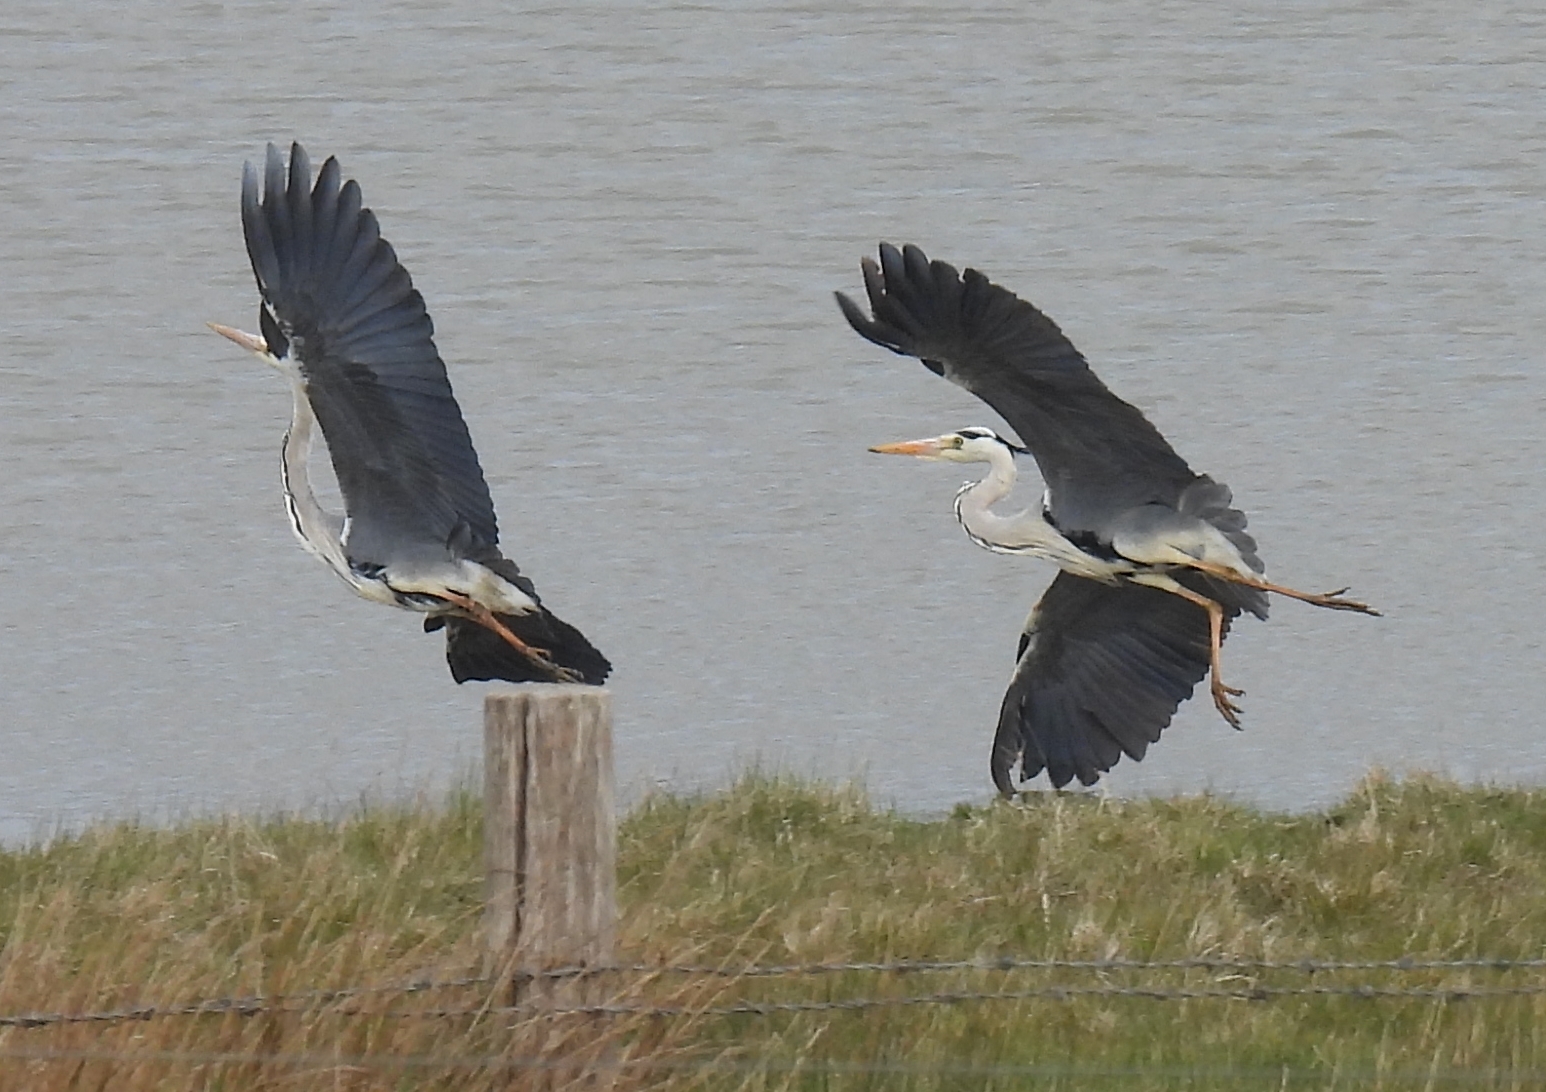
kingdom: Animalia
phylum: Chordata
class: Aves
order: Pelecaniformes
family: Ardeidae
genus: Ardea
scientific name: Ardea cinerea
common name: Grey heron
